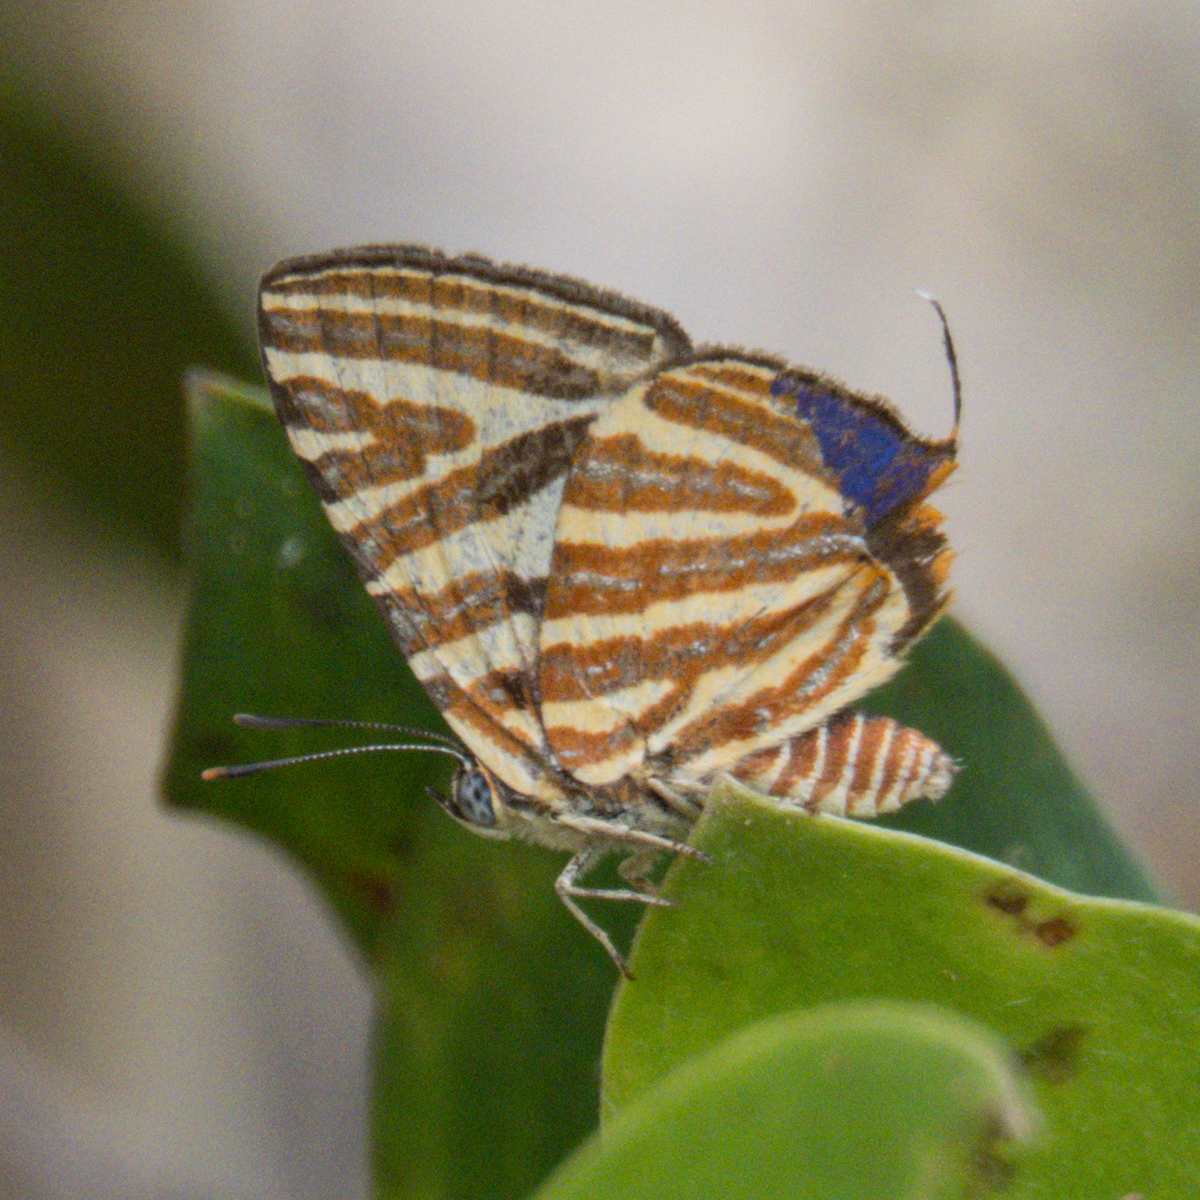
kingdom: Animalia
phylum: Arthropoda
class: Insecta
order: Lepidoptera
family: Lycaenidae
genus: Cigaritis
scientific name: Cigaritis lohita
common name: Long-banded silverline
